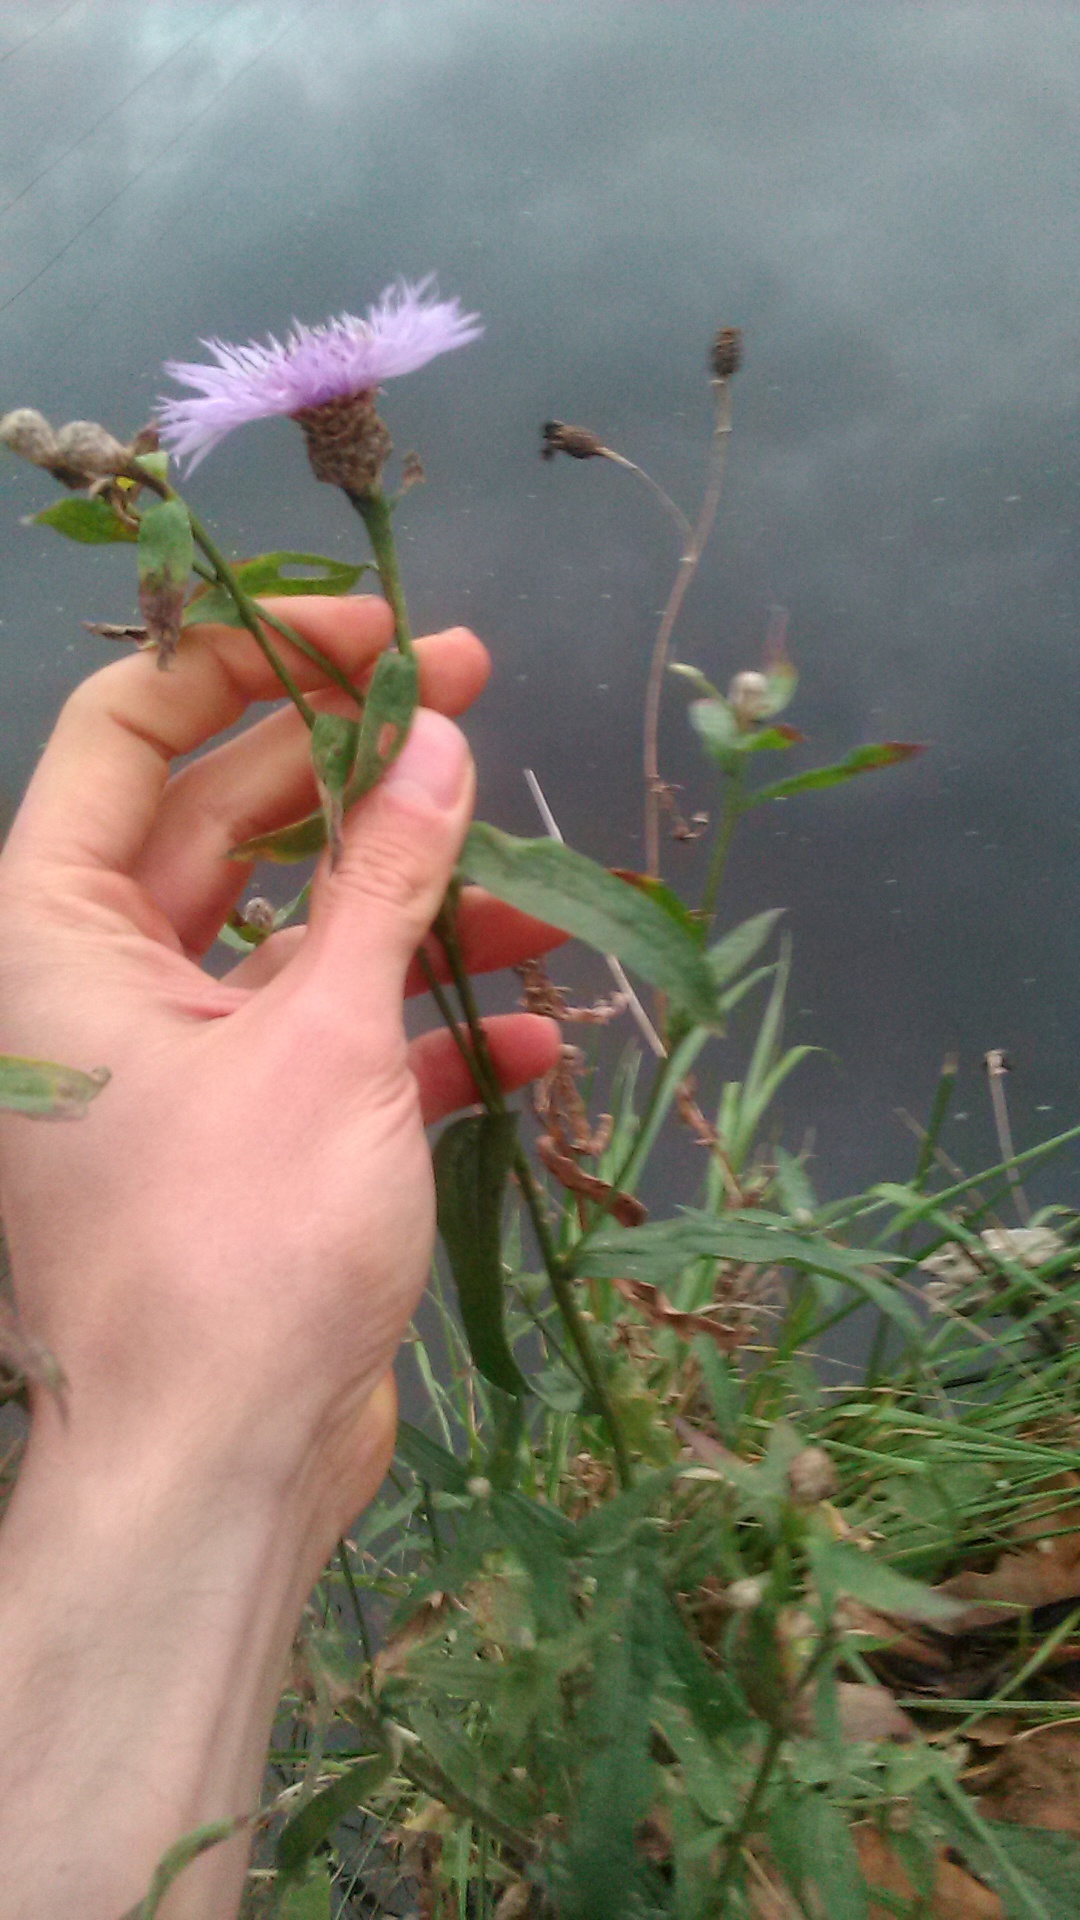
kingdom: Plantae
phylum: Tracheophyta
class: Magnoliopsida
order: Asterales
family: Asteraceae
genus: Centaurea
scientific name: Centaurea jacea
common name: Brown knapweed
